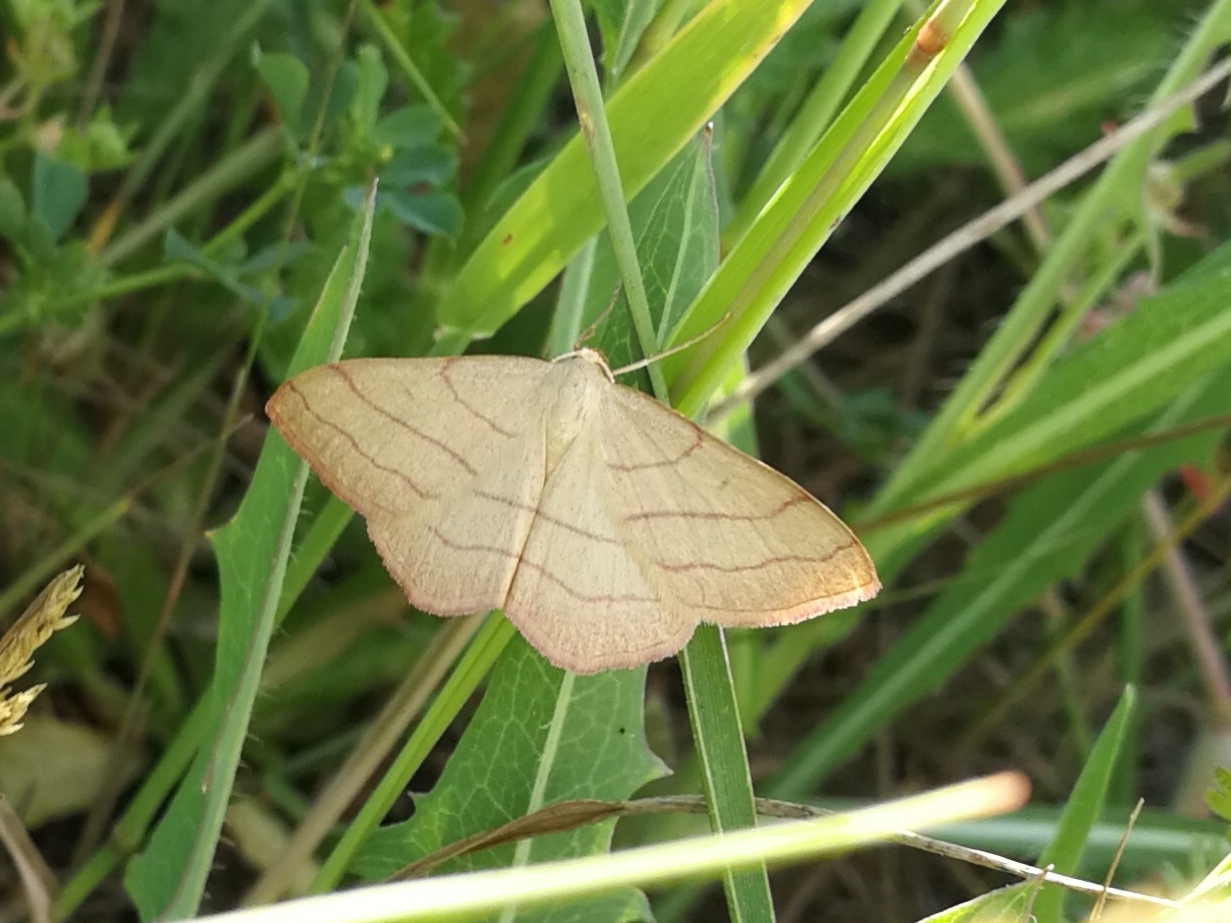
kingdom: Animalia
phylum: Arthropoda
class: Insecta
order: Lepidoptera
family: Geometridae
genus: Rhodostrophia
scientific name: Rhodostrophia vibicaria
